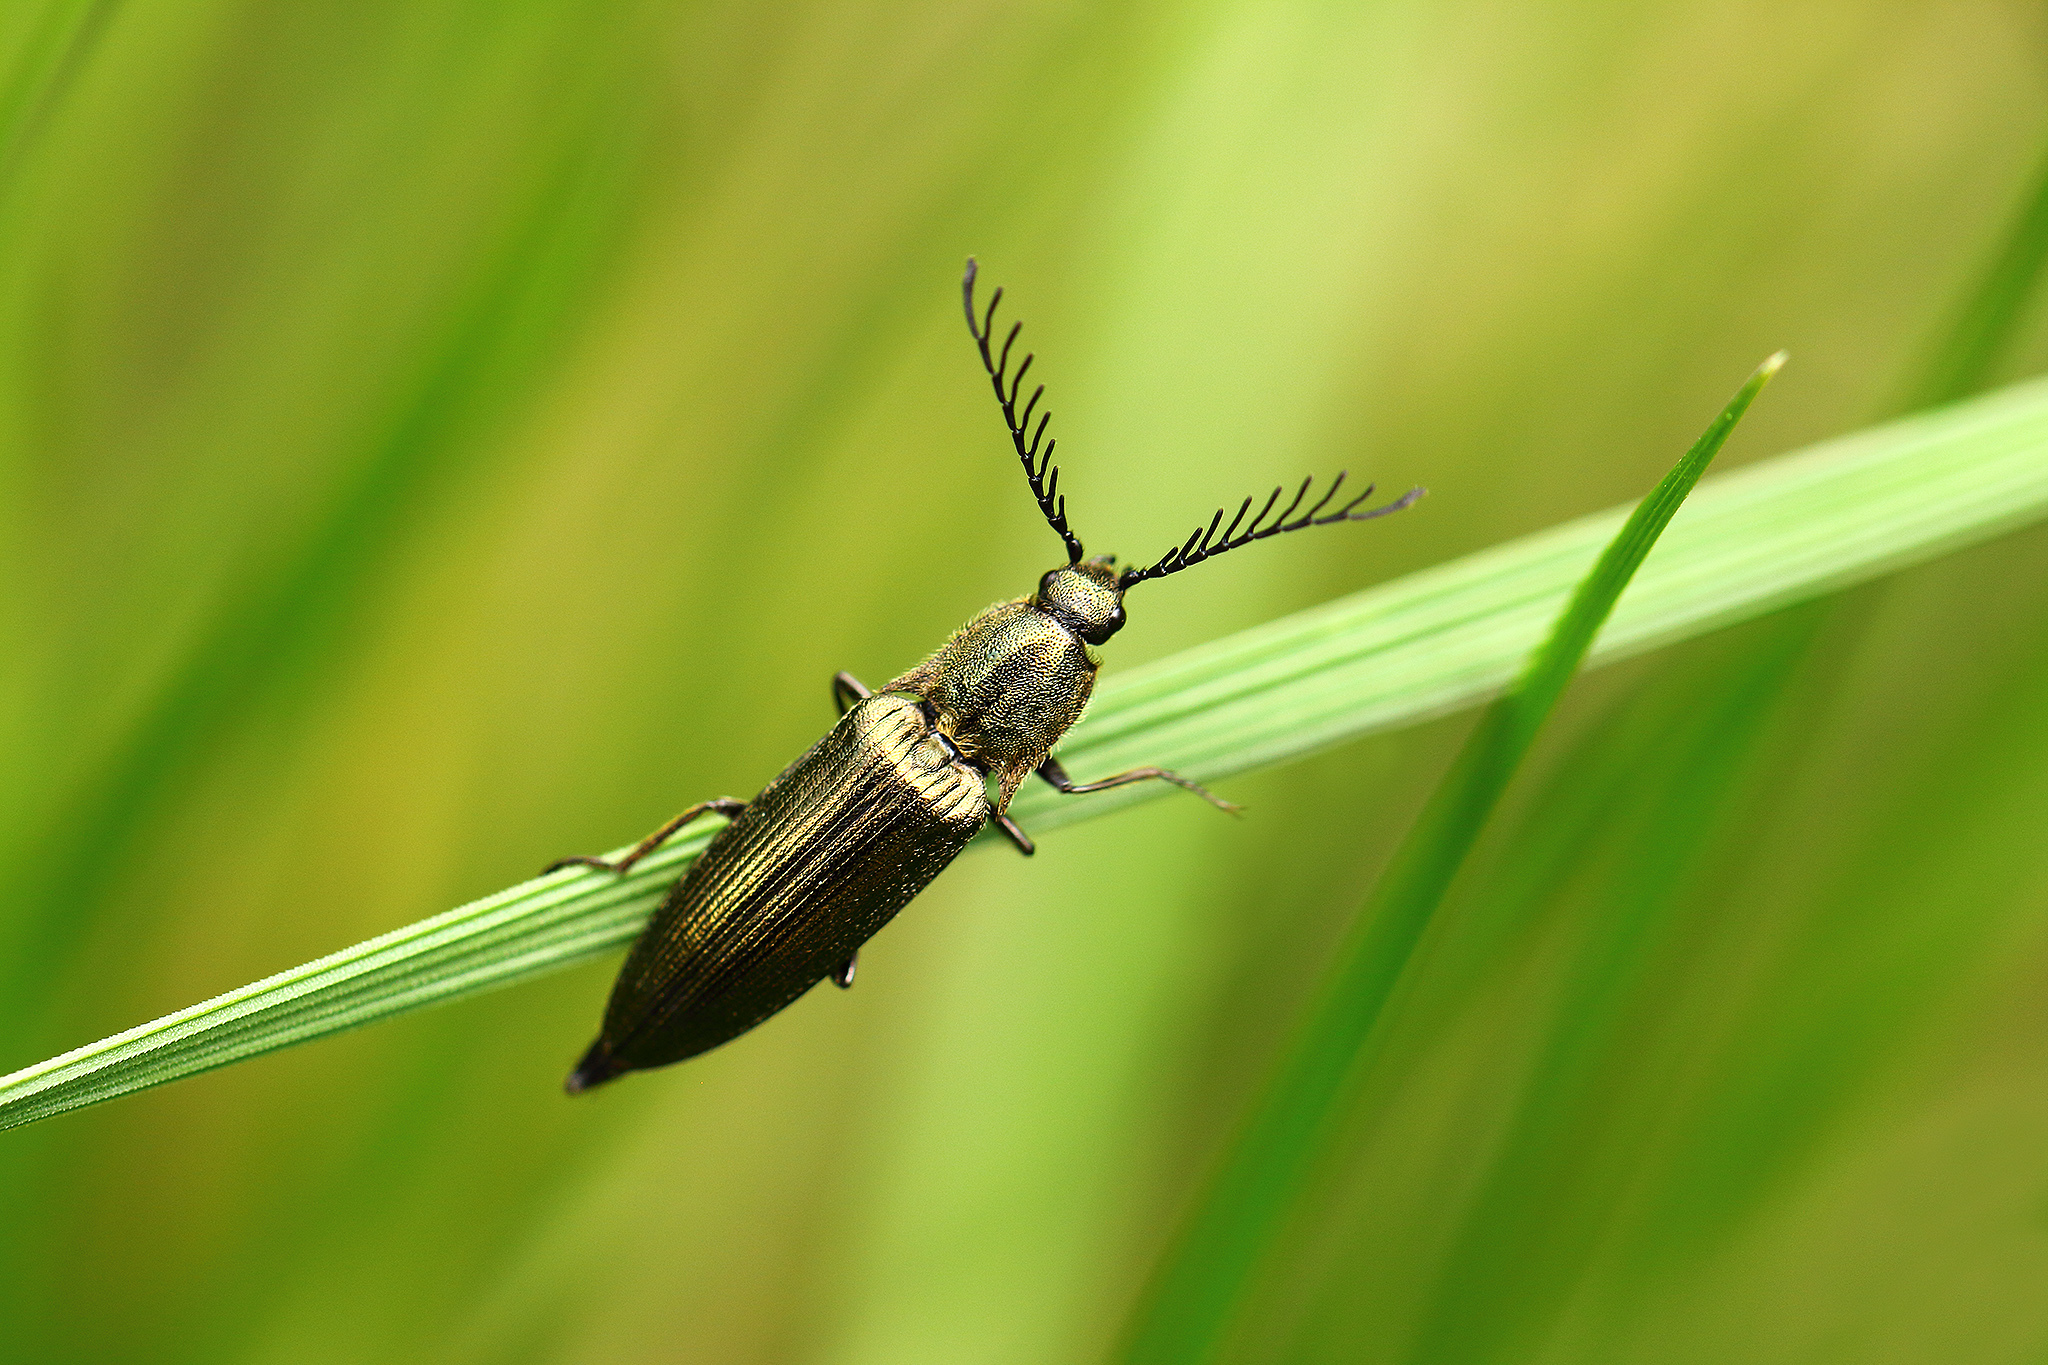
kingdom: Animalia
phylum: Arthropoda
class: Insecta
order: Coleoptera
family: Elateridae
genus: Ctenicera
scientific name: Ctenicera pectinicornis
